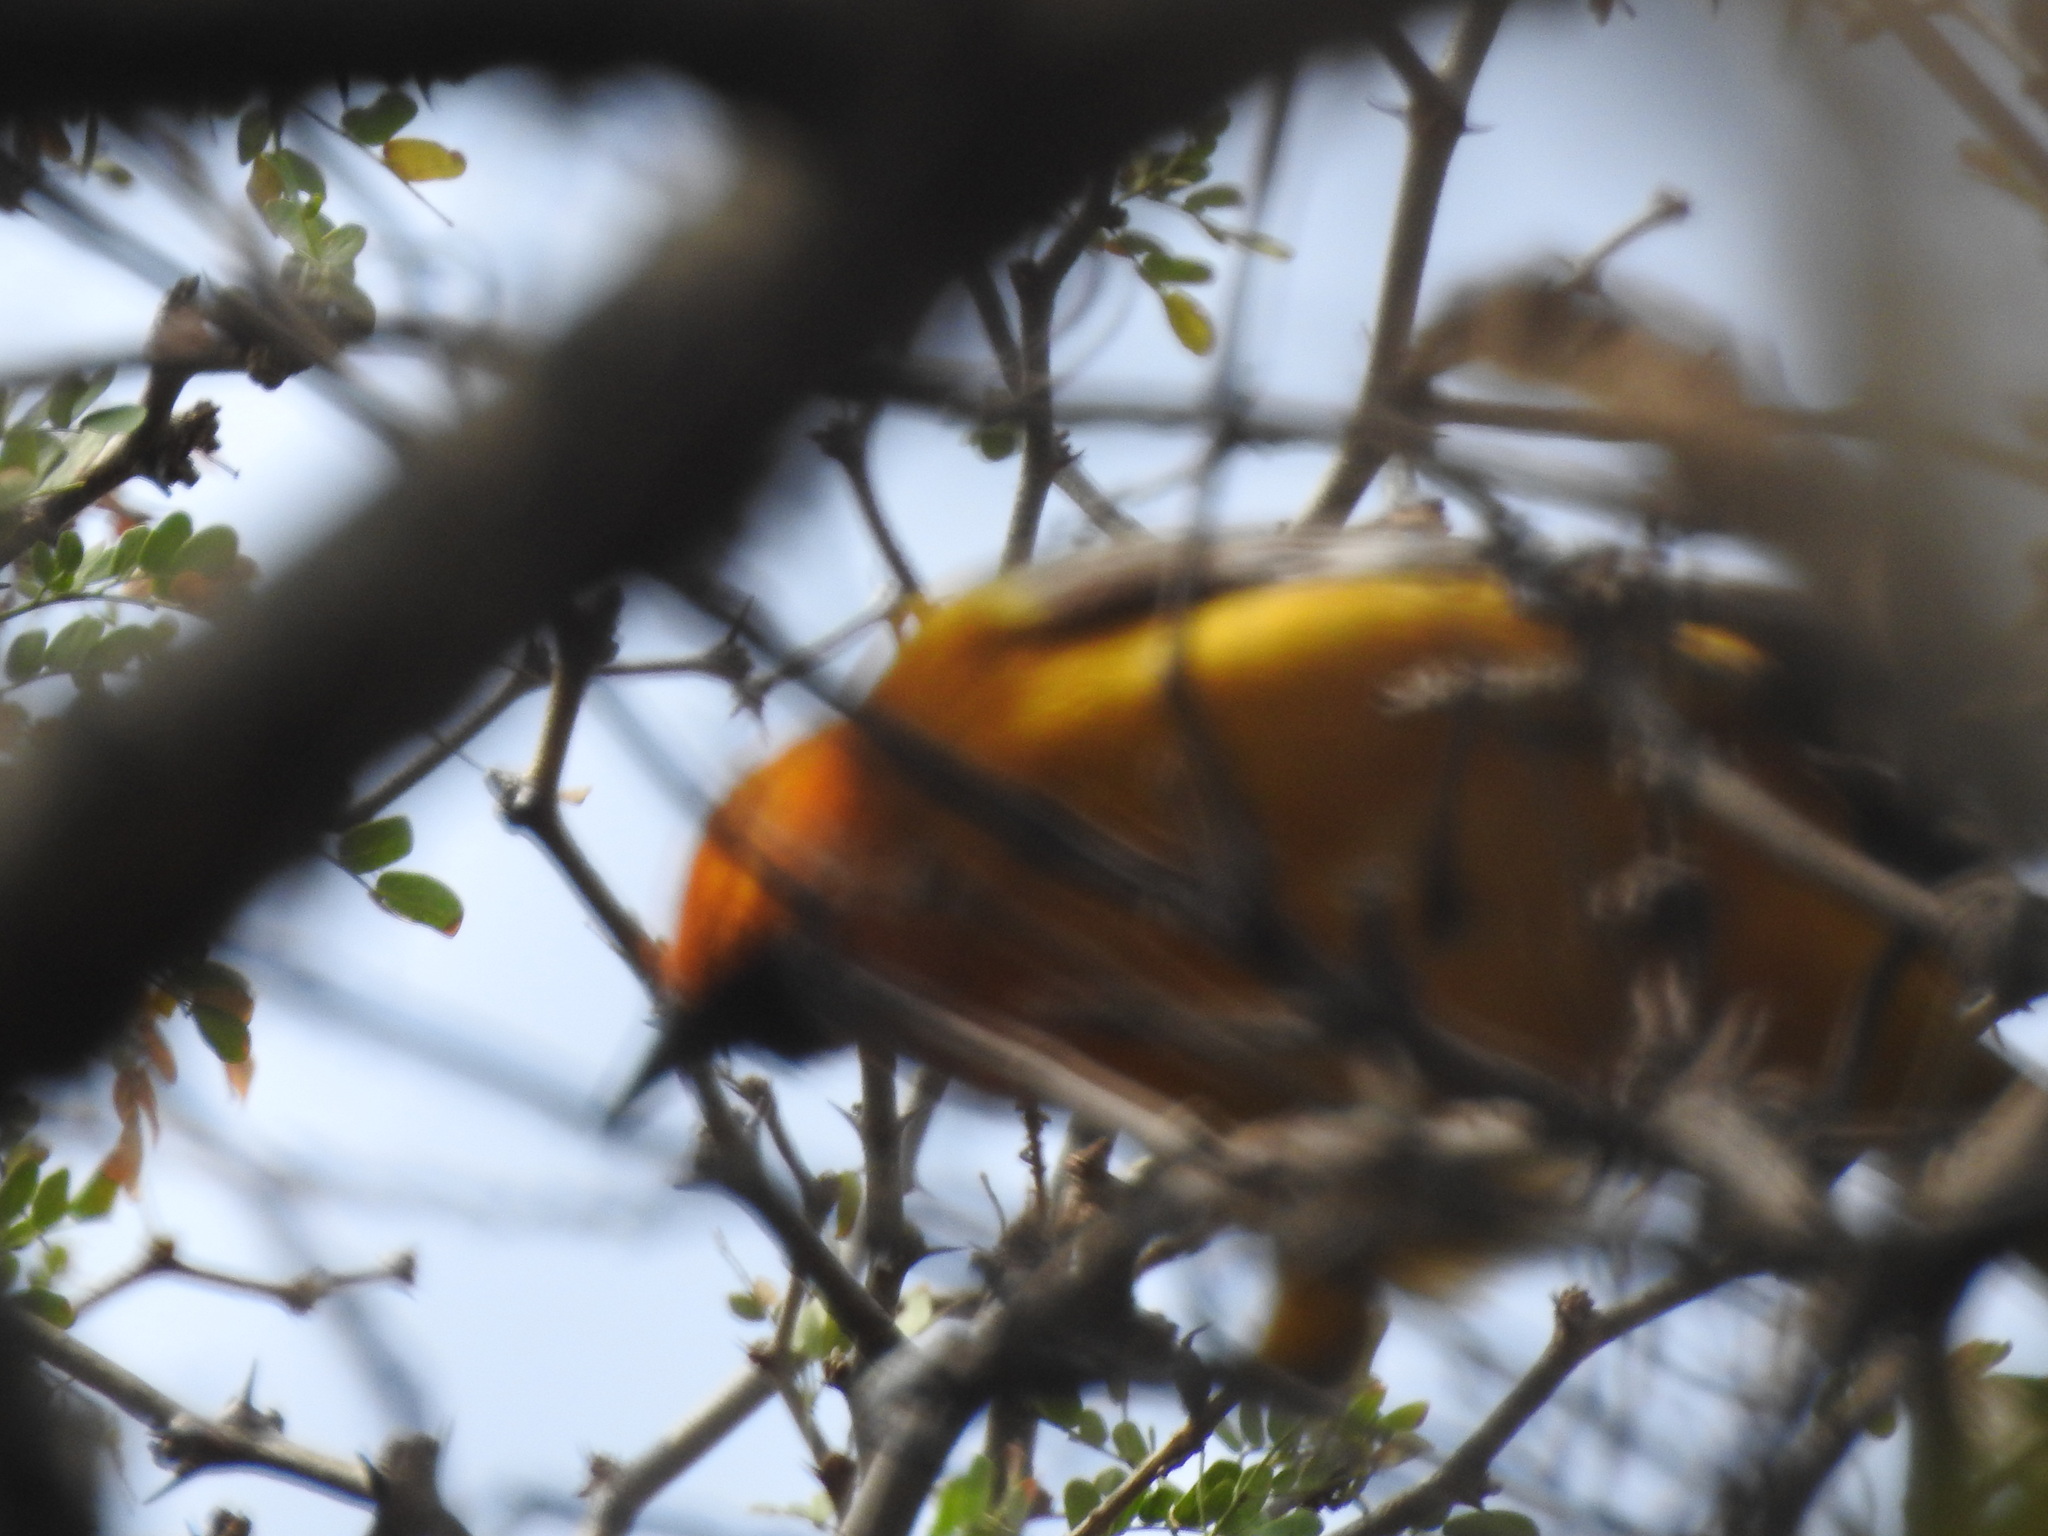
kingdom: Animalia
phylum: Chordata
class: Aves
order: Passeriformes
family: Icteridae
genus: Icterus
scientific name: Icterus gularis
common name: Altamira oriole
